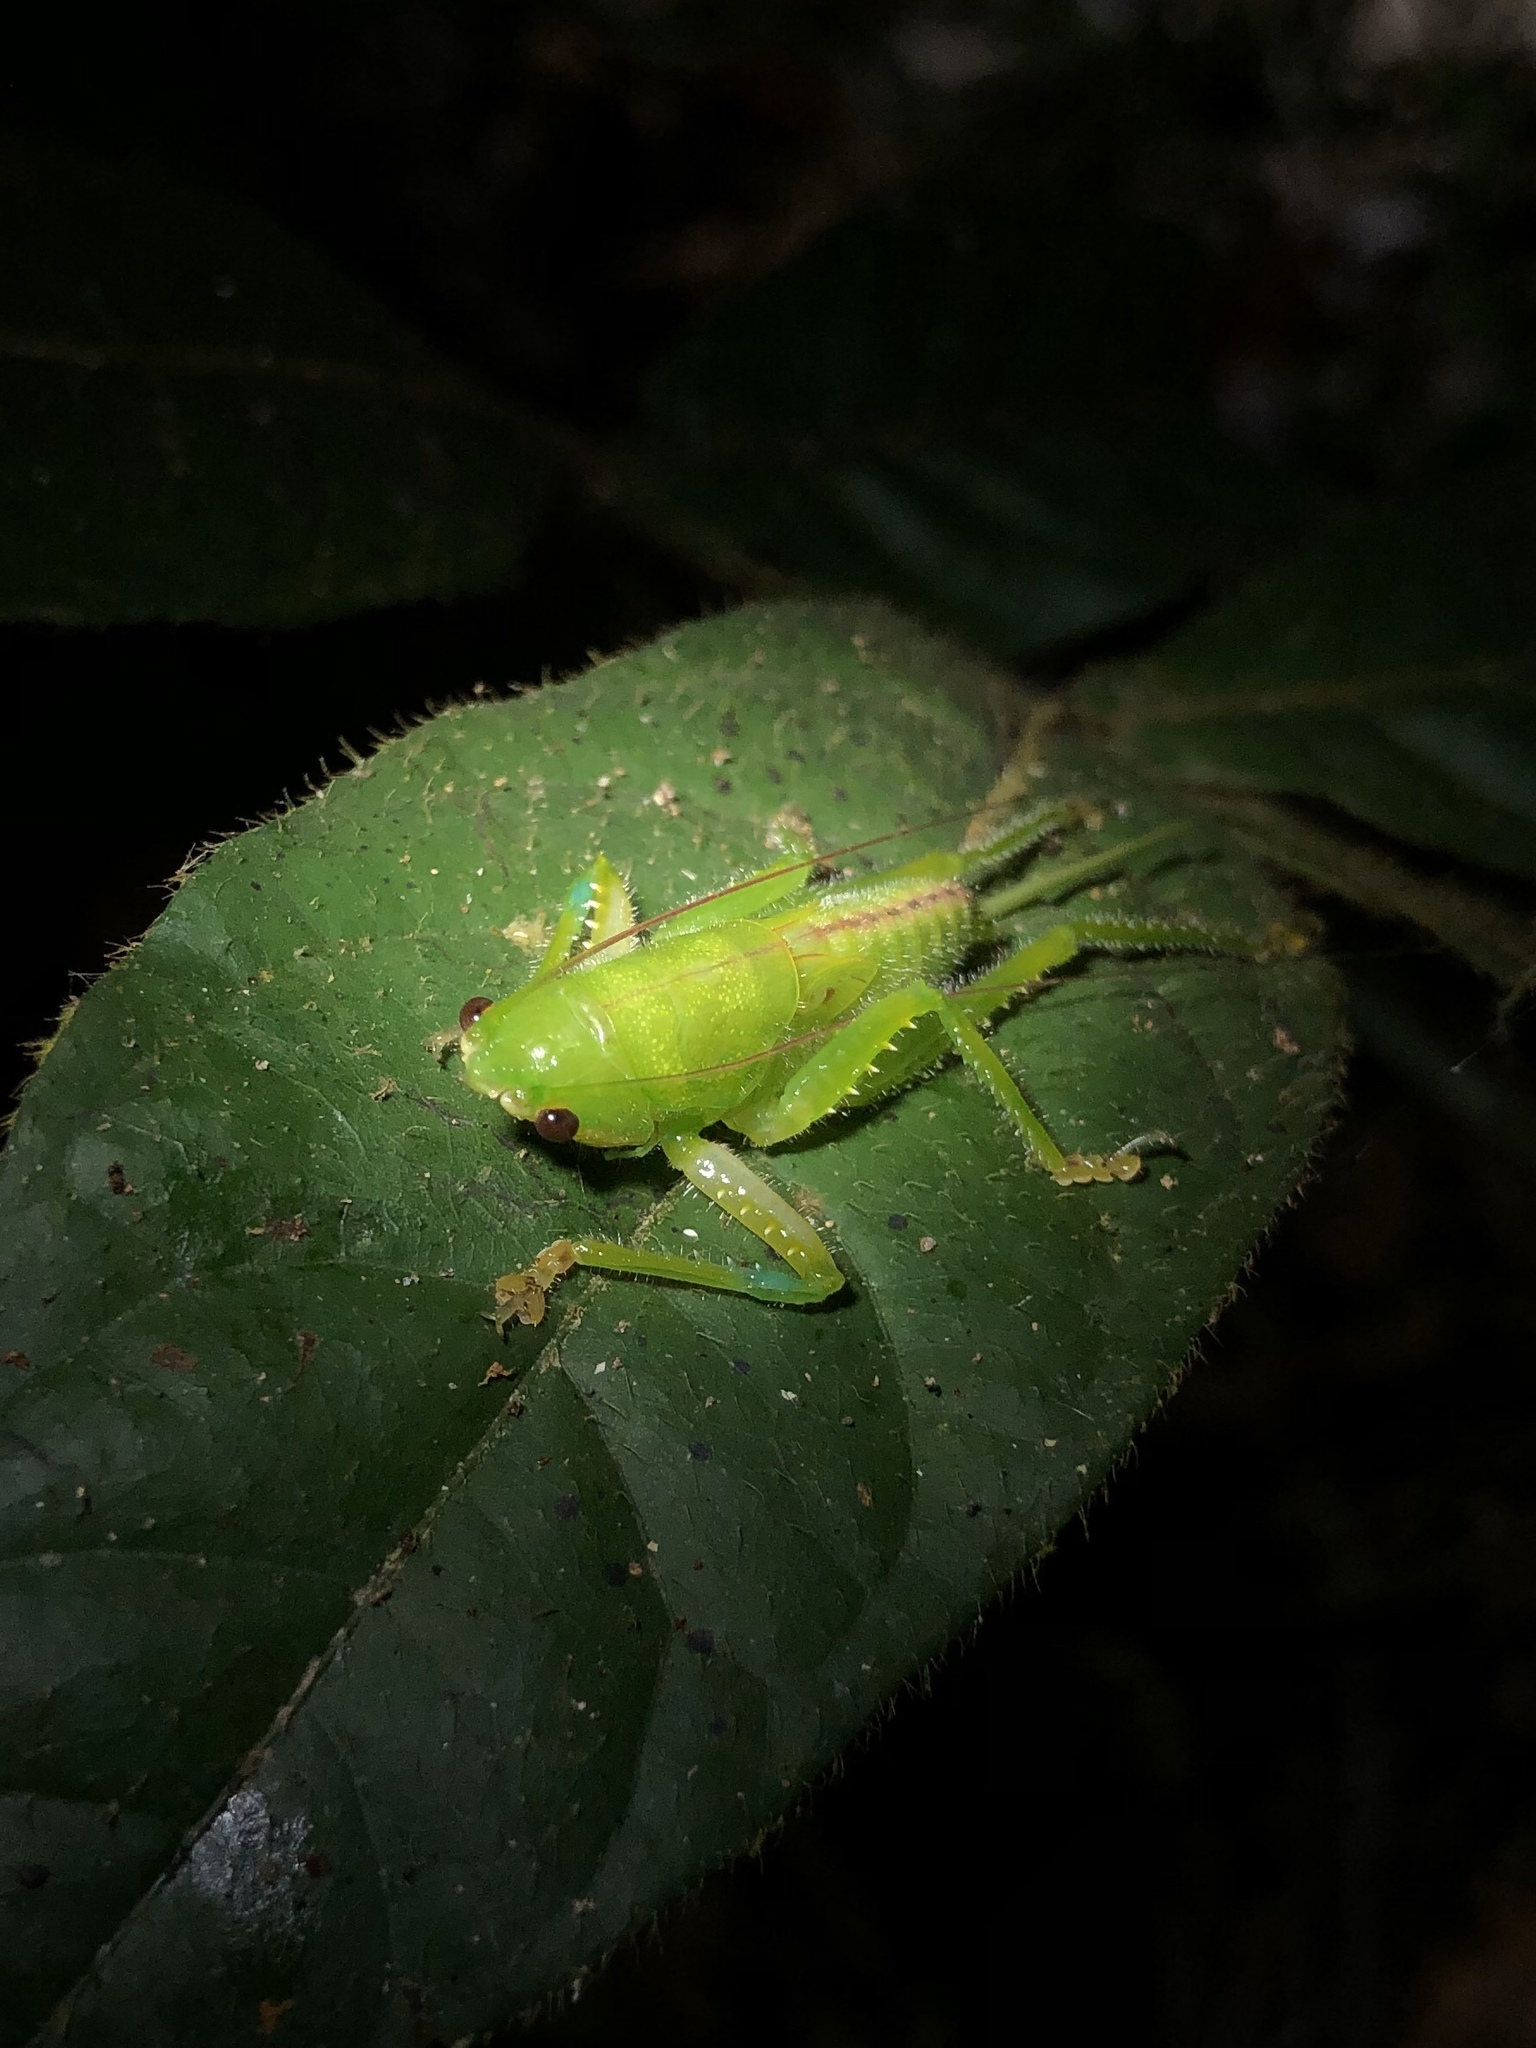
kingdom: Animalia
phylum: Arthropoda
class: Insecta
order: Orthoptera
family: Tettigoniidae
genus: Copiphora
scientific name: Copiphora brevirostris
